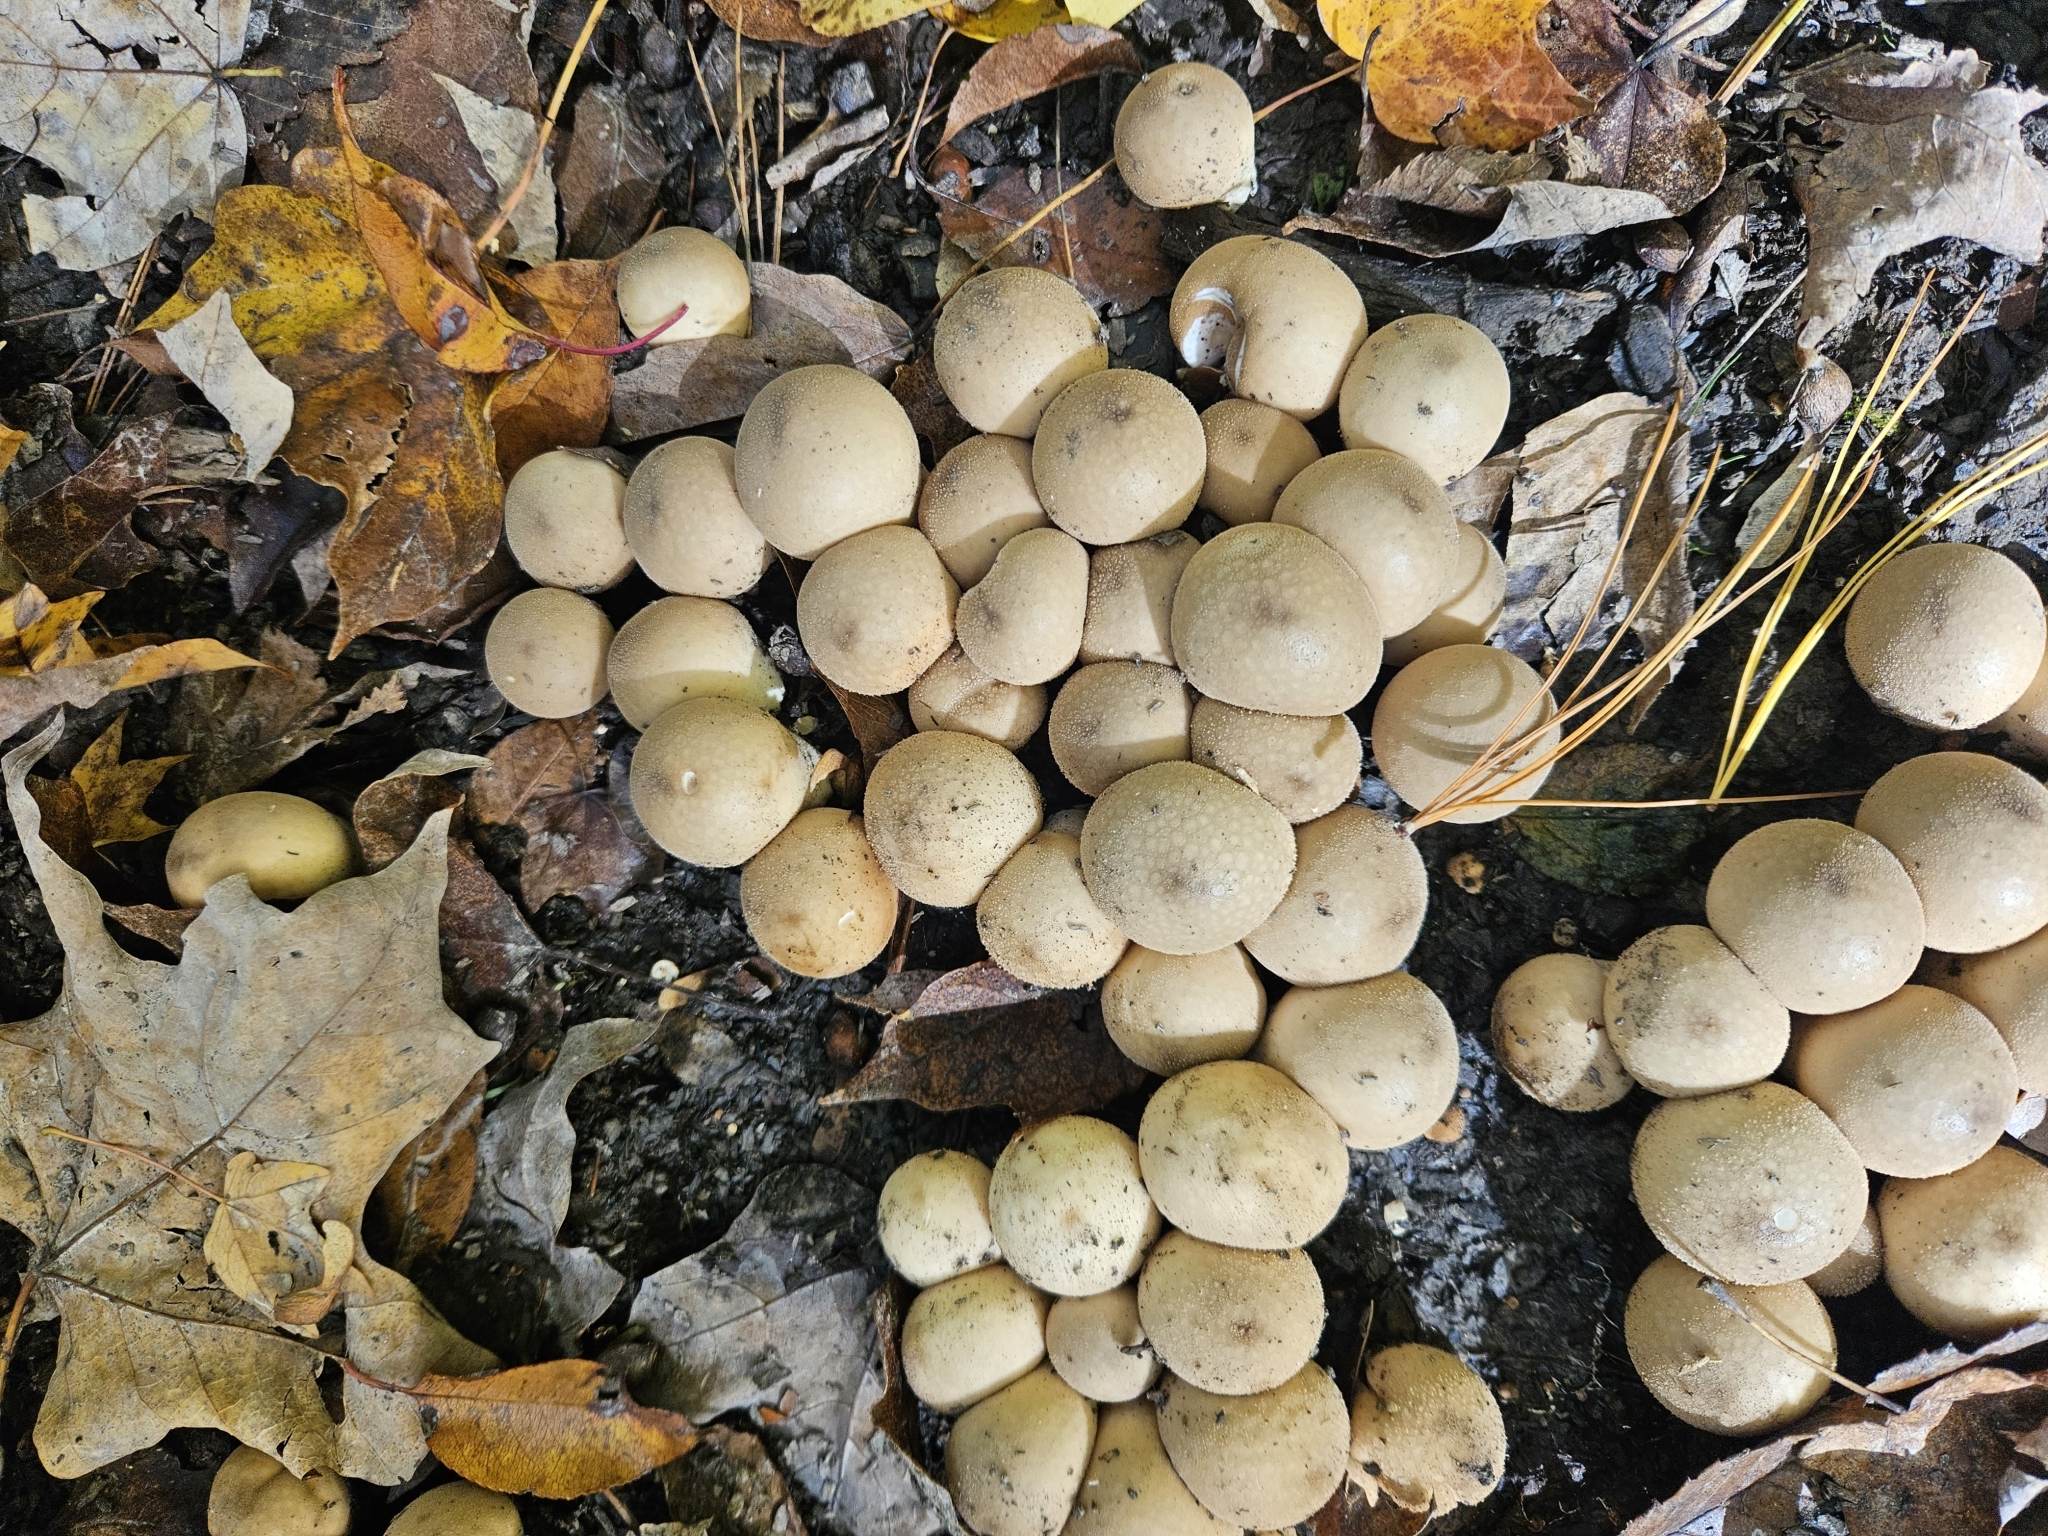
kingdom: Fungi
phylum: Basidiomycota
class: Agaricomycetes
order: Agaricales
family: Lycoperdaceae
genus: Apioperdon
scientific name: Apioperdon pyriforme
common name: Pear-shaped puffball
